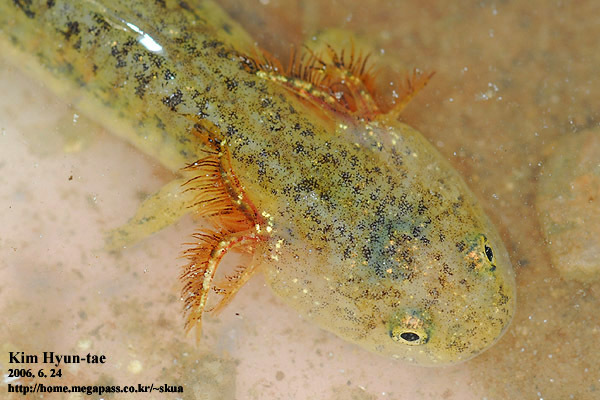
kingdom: Animalia
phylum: Chordata
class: Amphibia
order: Caudata
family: Hynobiidae
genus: Hynobius
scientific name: Hynobius leechii
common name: Gensan salamander
